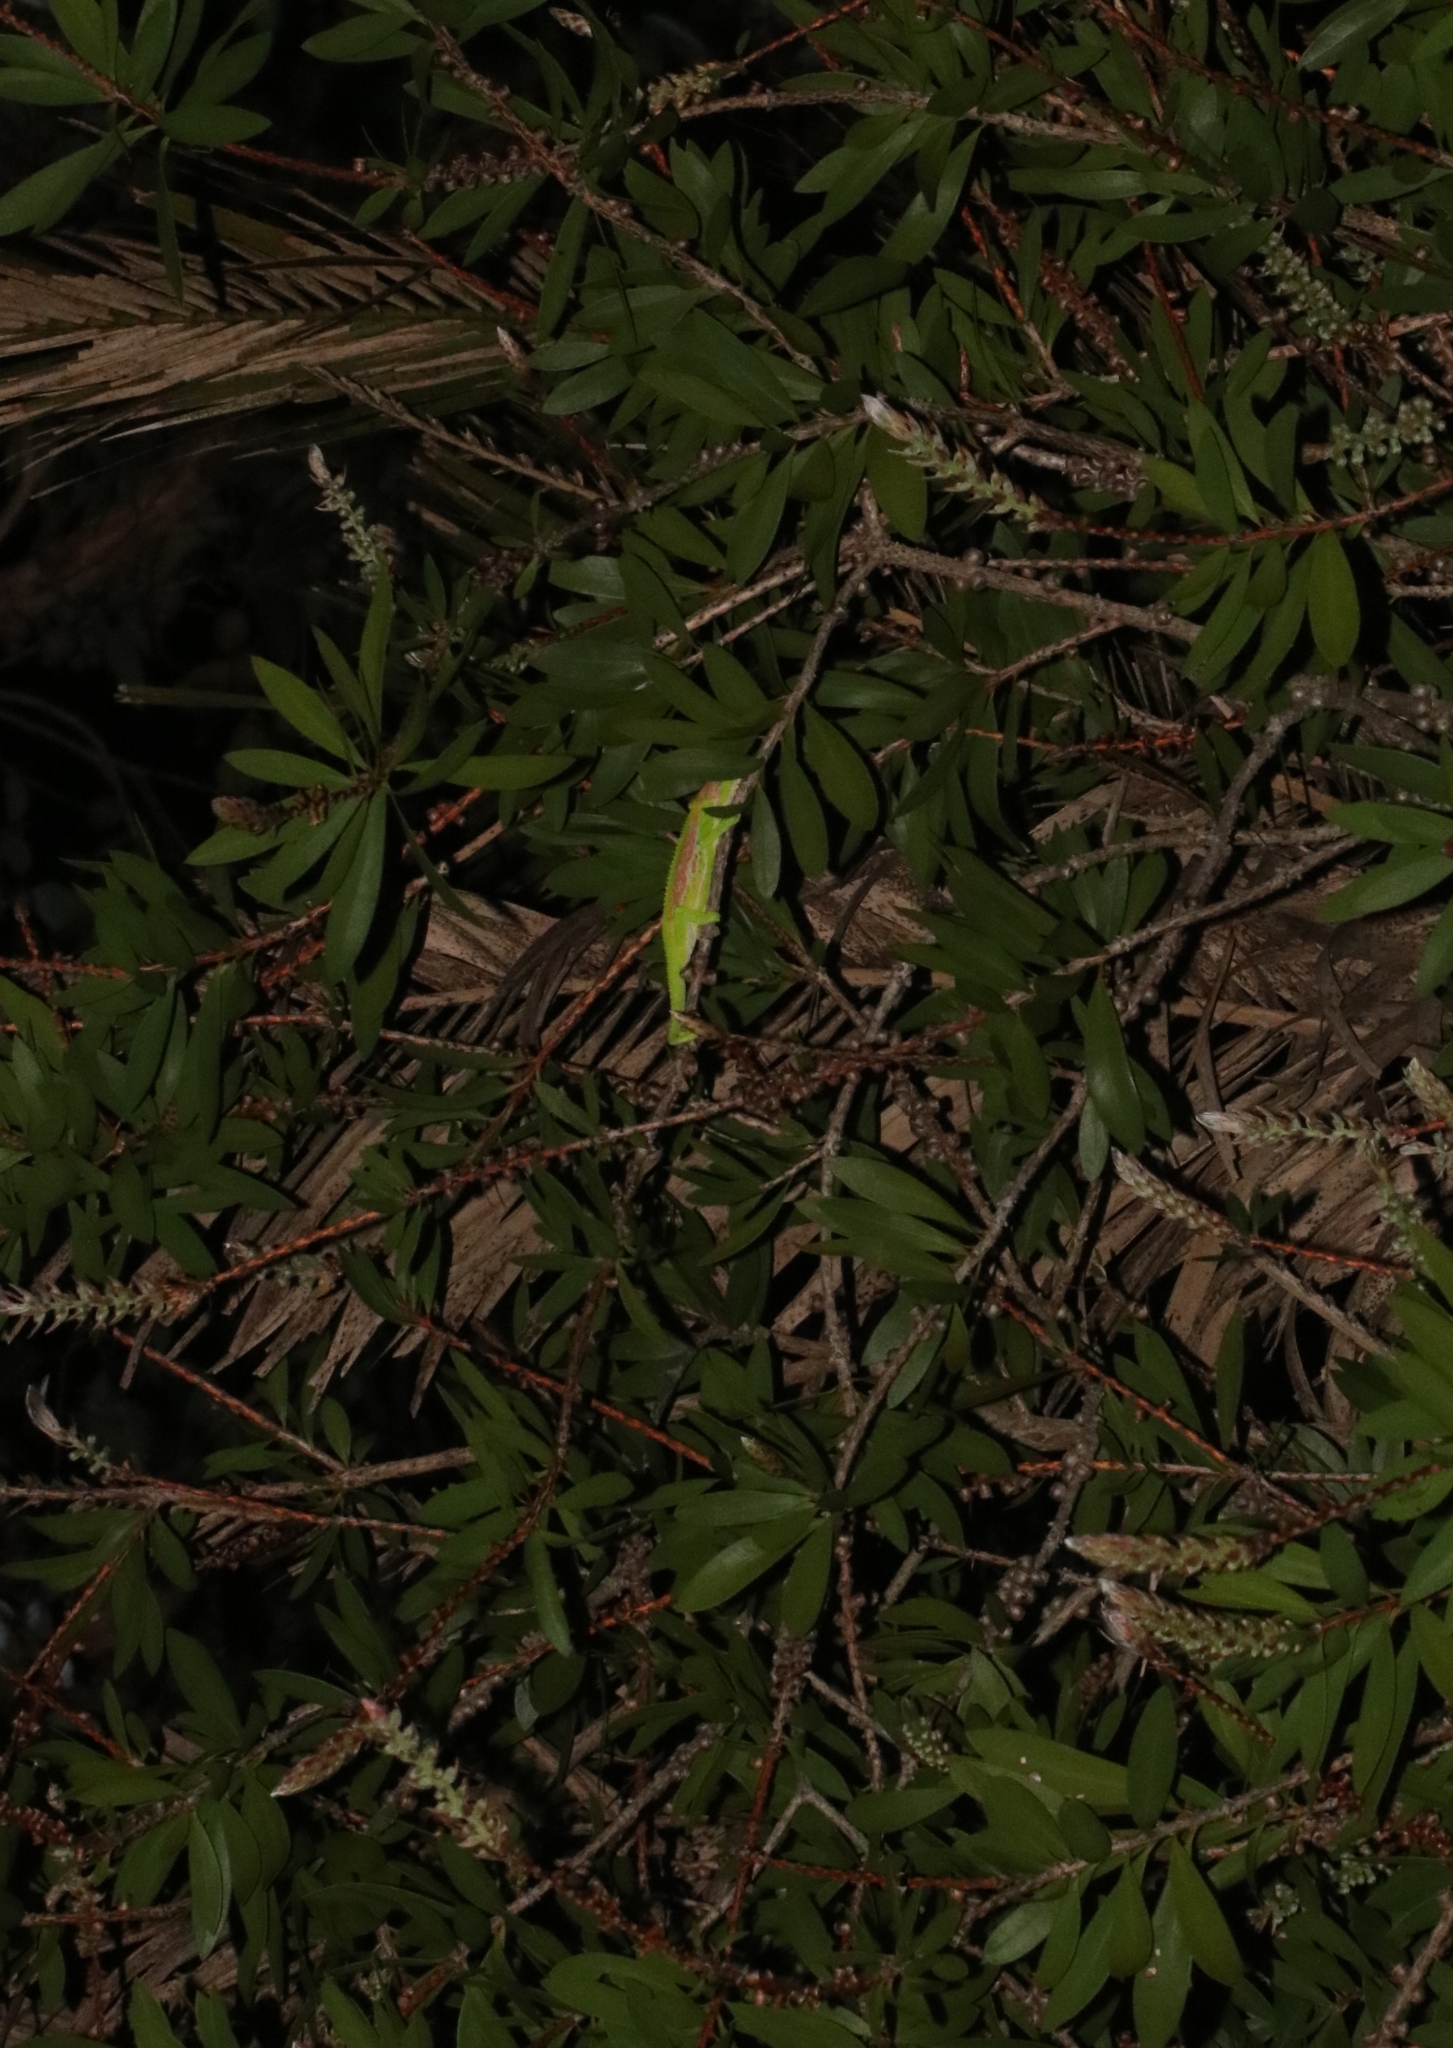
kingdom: Animalia
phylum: Chordata
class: Squamata
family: Chamaeleonidae
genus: Bradypodion
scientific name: Bradypodion pumilum
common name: Cape dwarf chameleon
